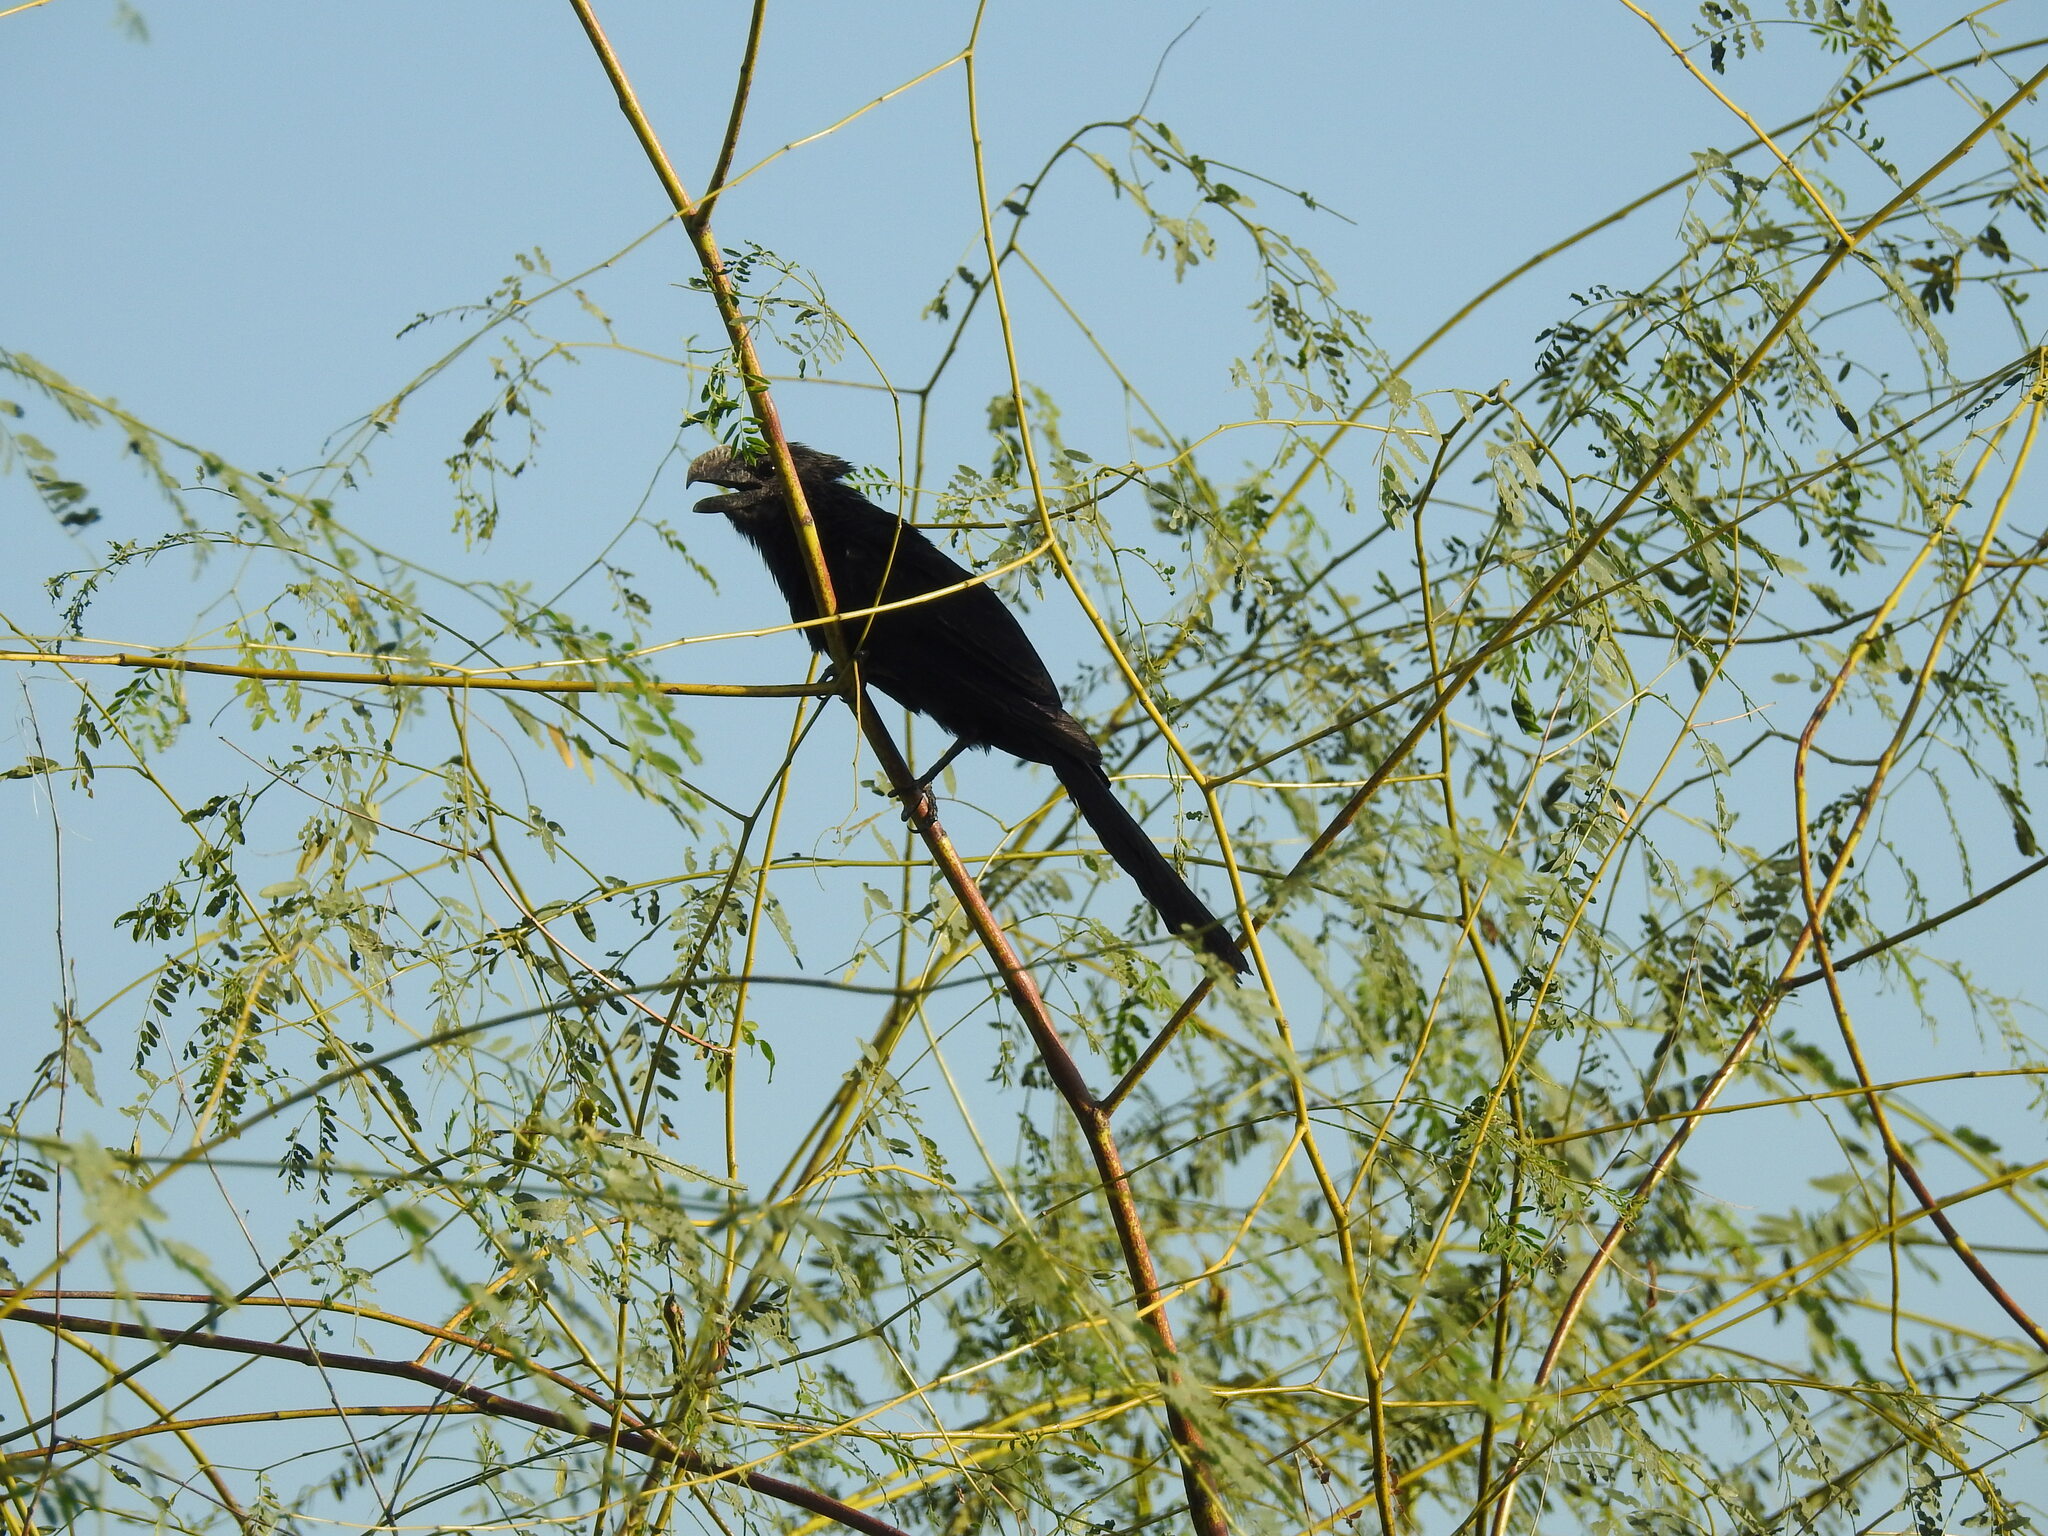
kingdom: Animalia
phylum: Chordata
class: Aves
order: Cuculiformes
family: Cuculidae
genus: Crotophaga
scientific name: Crotophaga ani
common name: Smooth-billed ani
